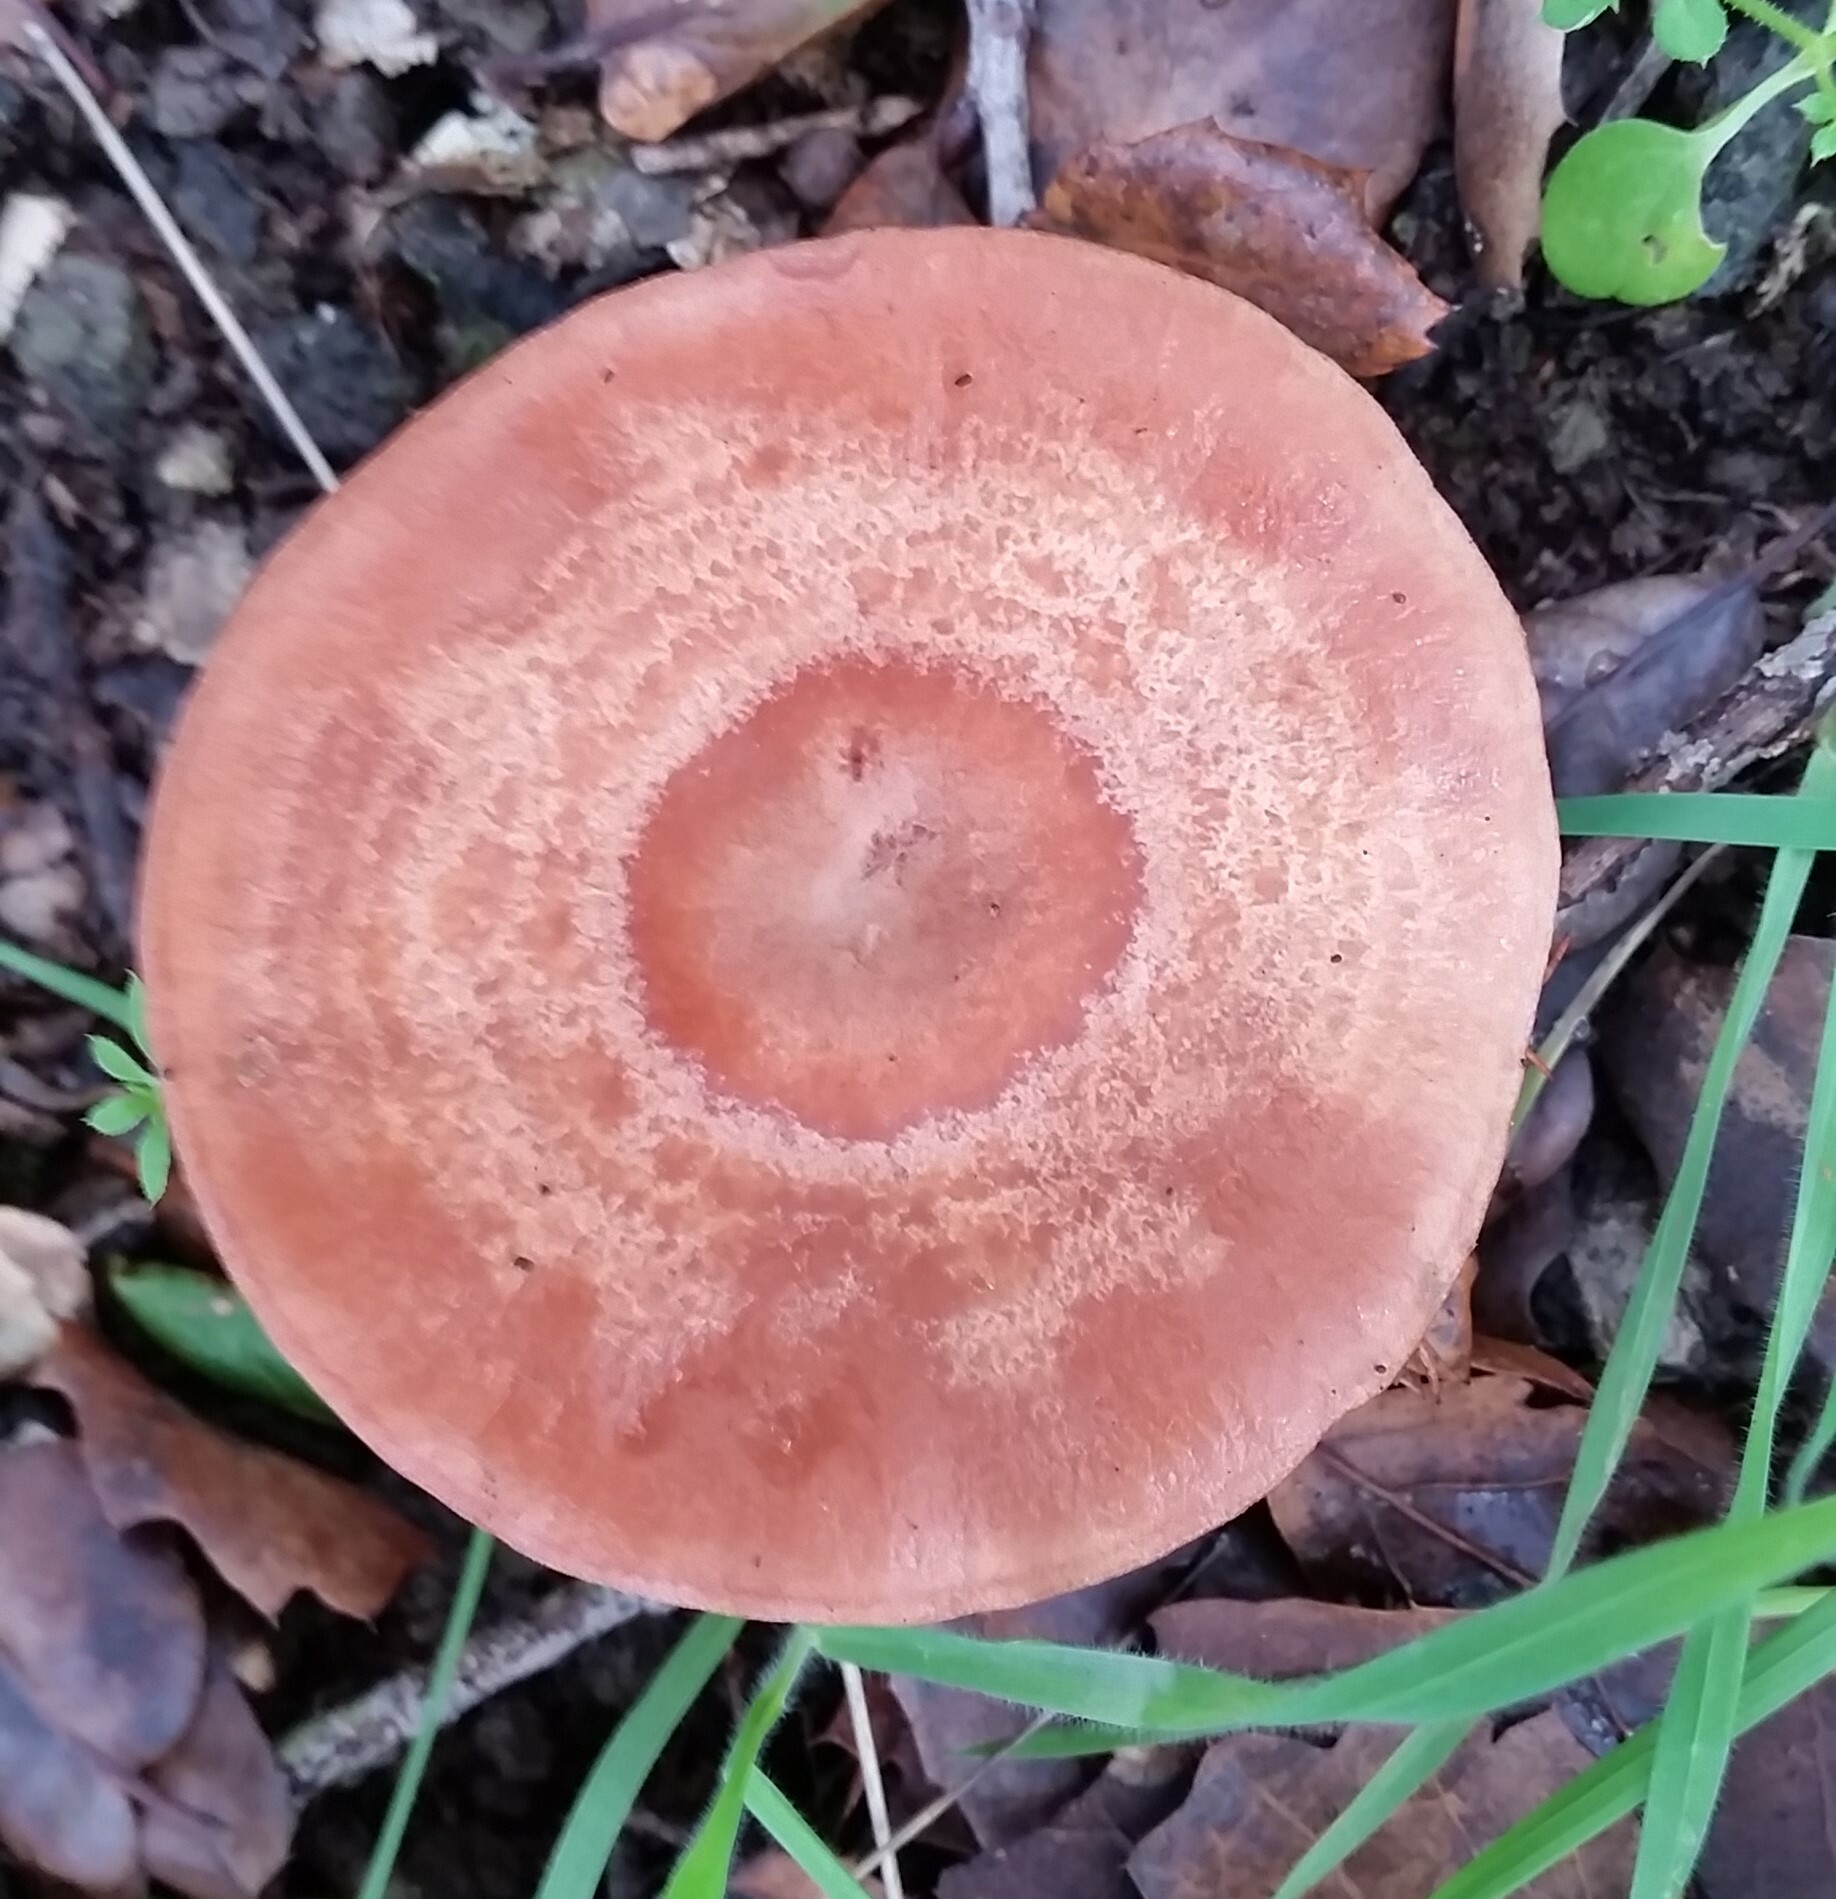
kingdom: Fungi
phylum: Basidiomycota
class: Agaricomycetes
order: Russulales
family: Russulaceae
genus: Lactarius
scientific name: Lactarius xanthogalactus
